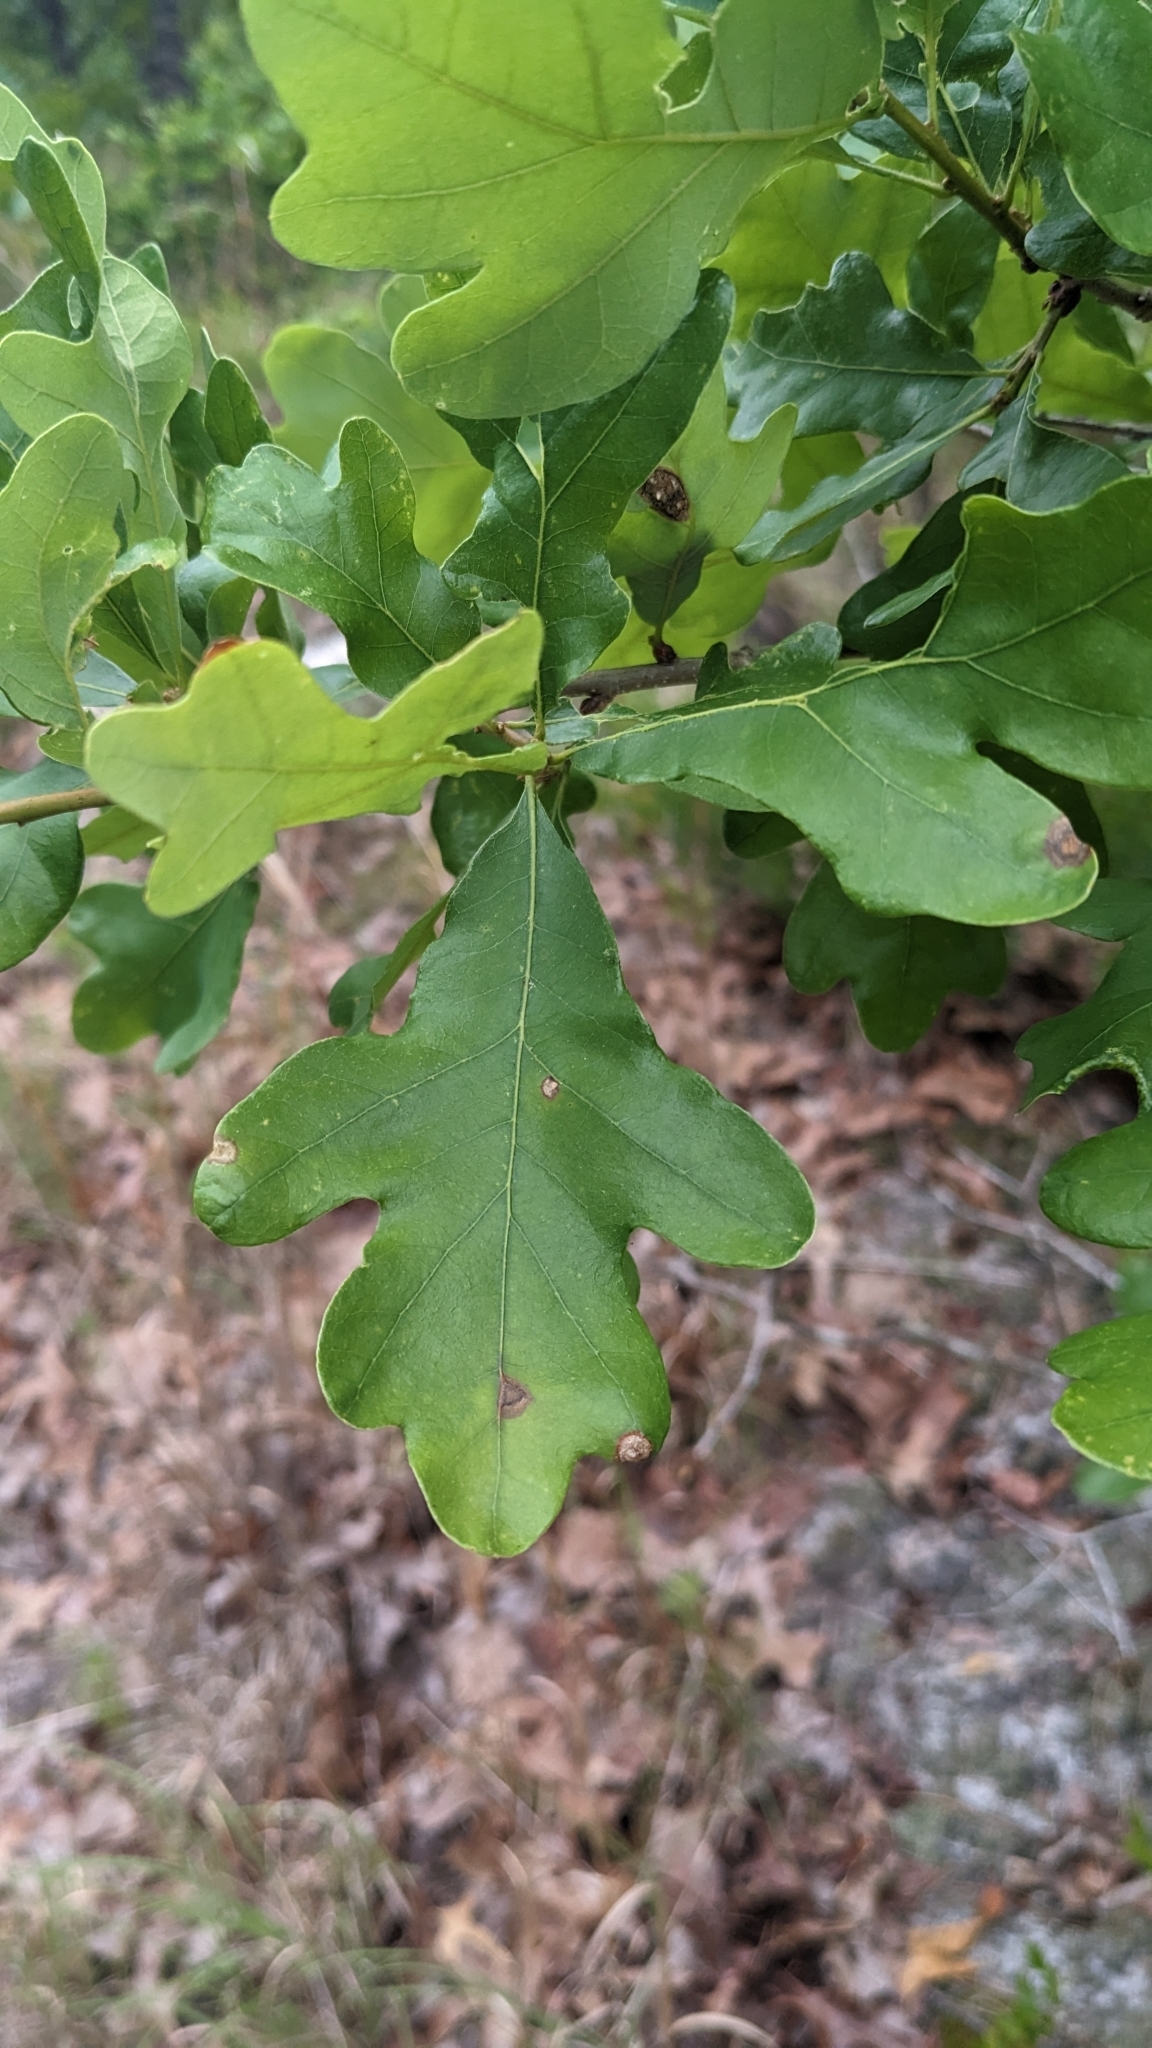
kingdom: Plantae
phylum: Tracheophyta
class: Magnoliopsida
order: Fagales
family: Fagaceae
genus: Quercus
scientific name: Quercus margaretiae
